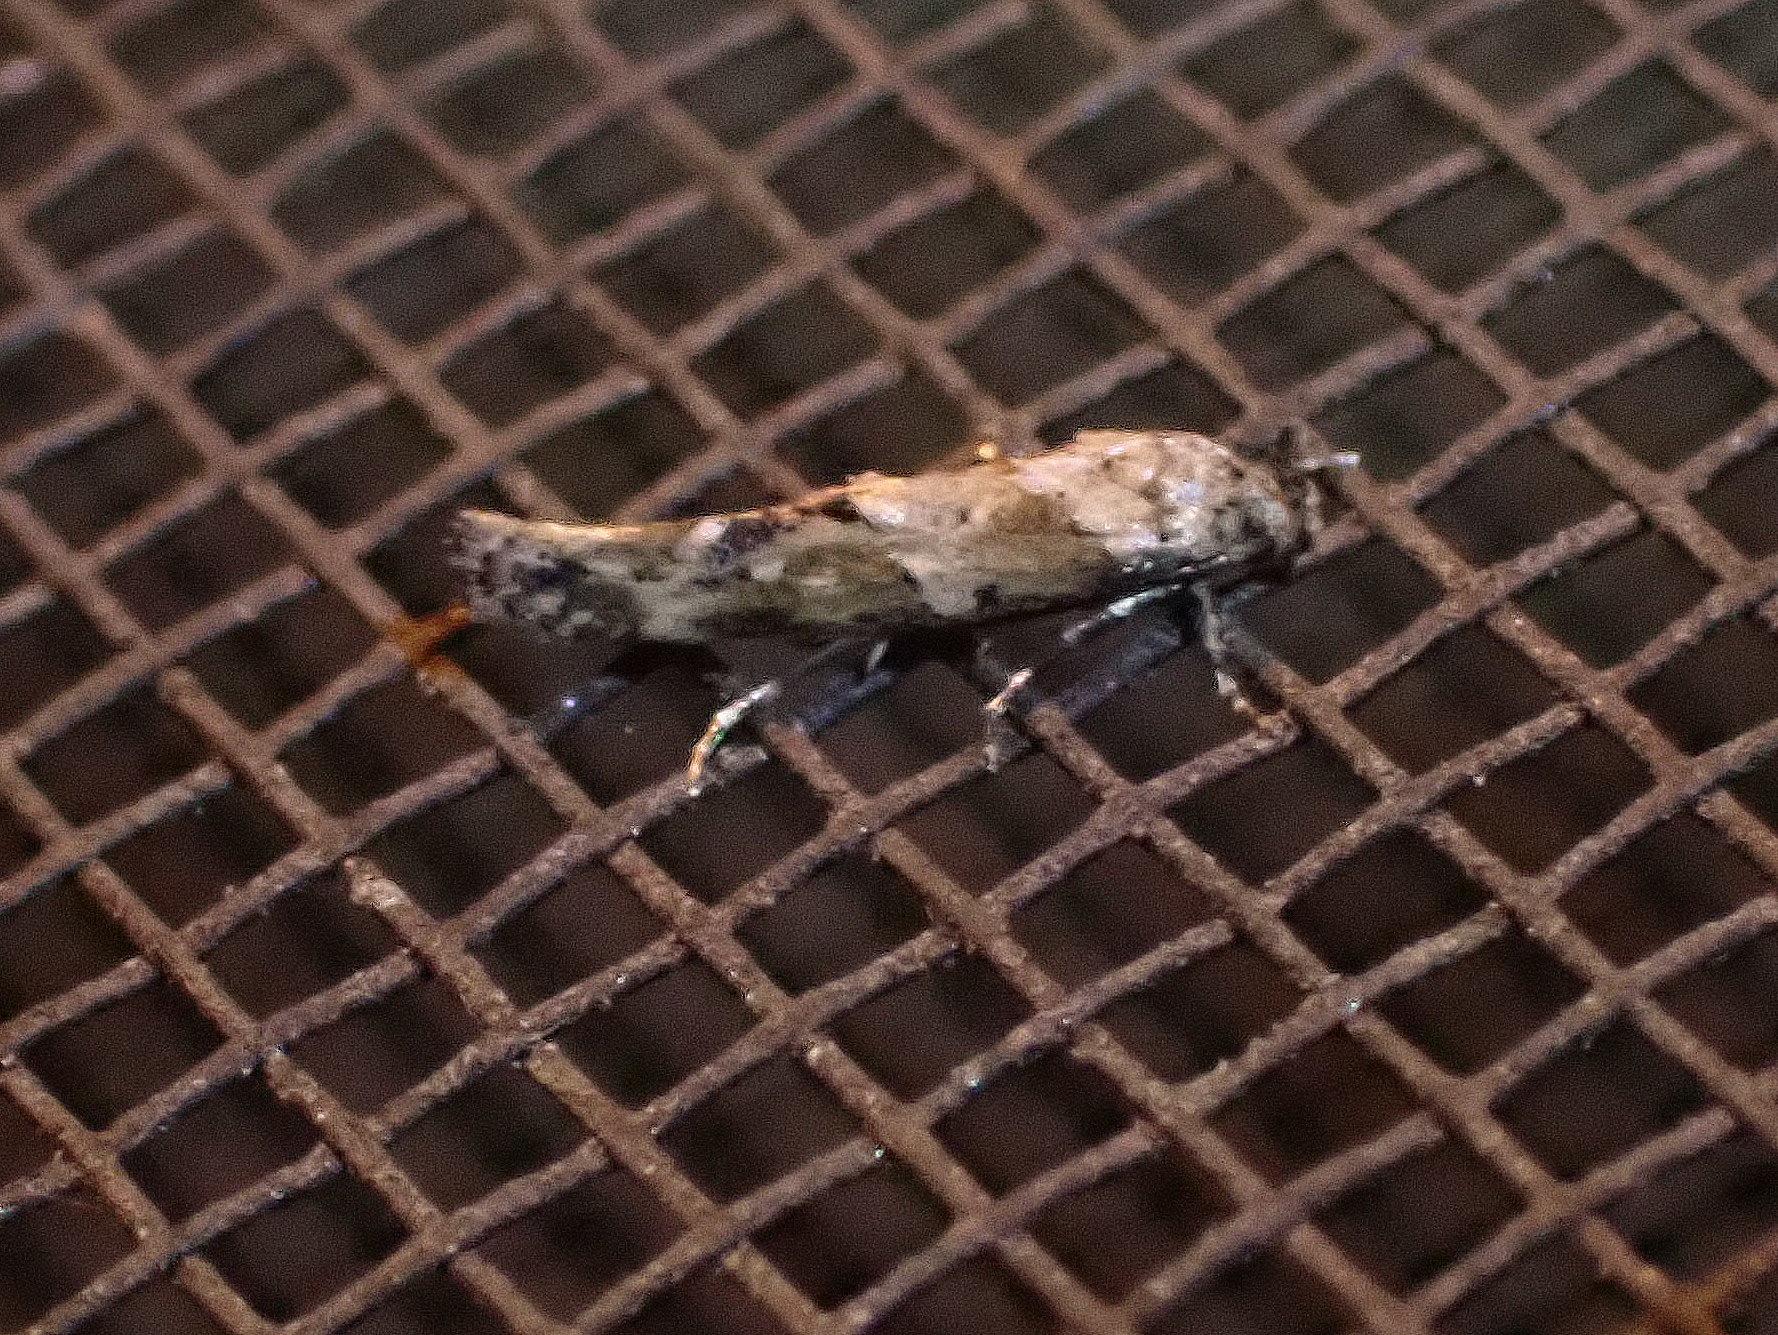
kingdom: Animalia
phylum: Arthropoda
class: Insecta
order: Lepidoptera
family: Momphidae
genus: Mompha
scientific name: Mompha stellella
